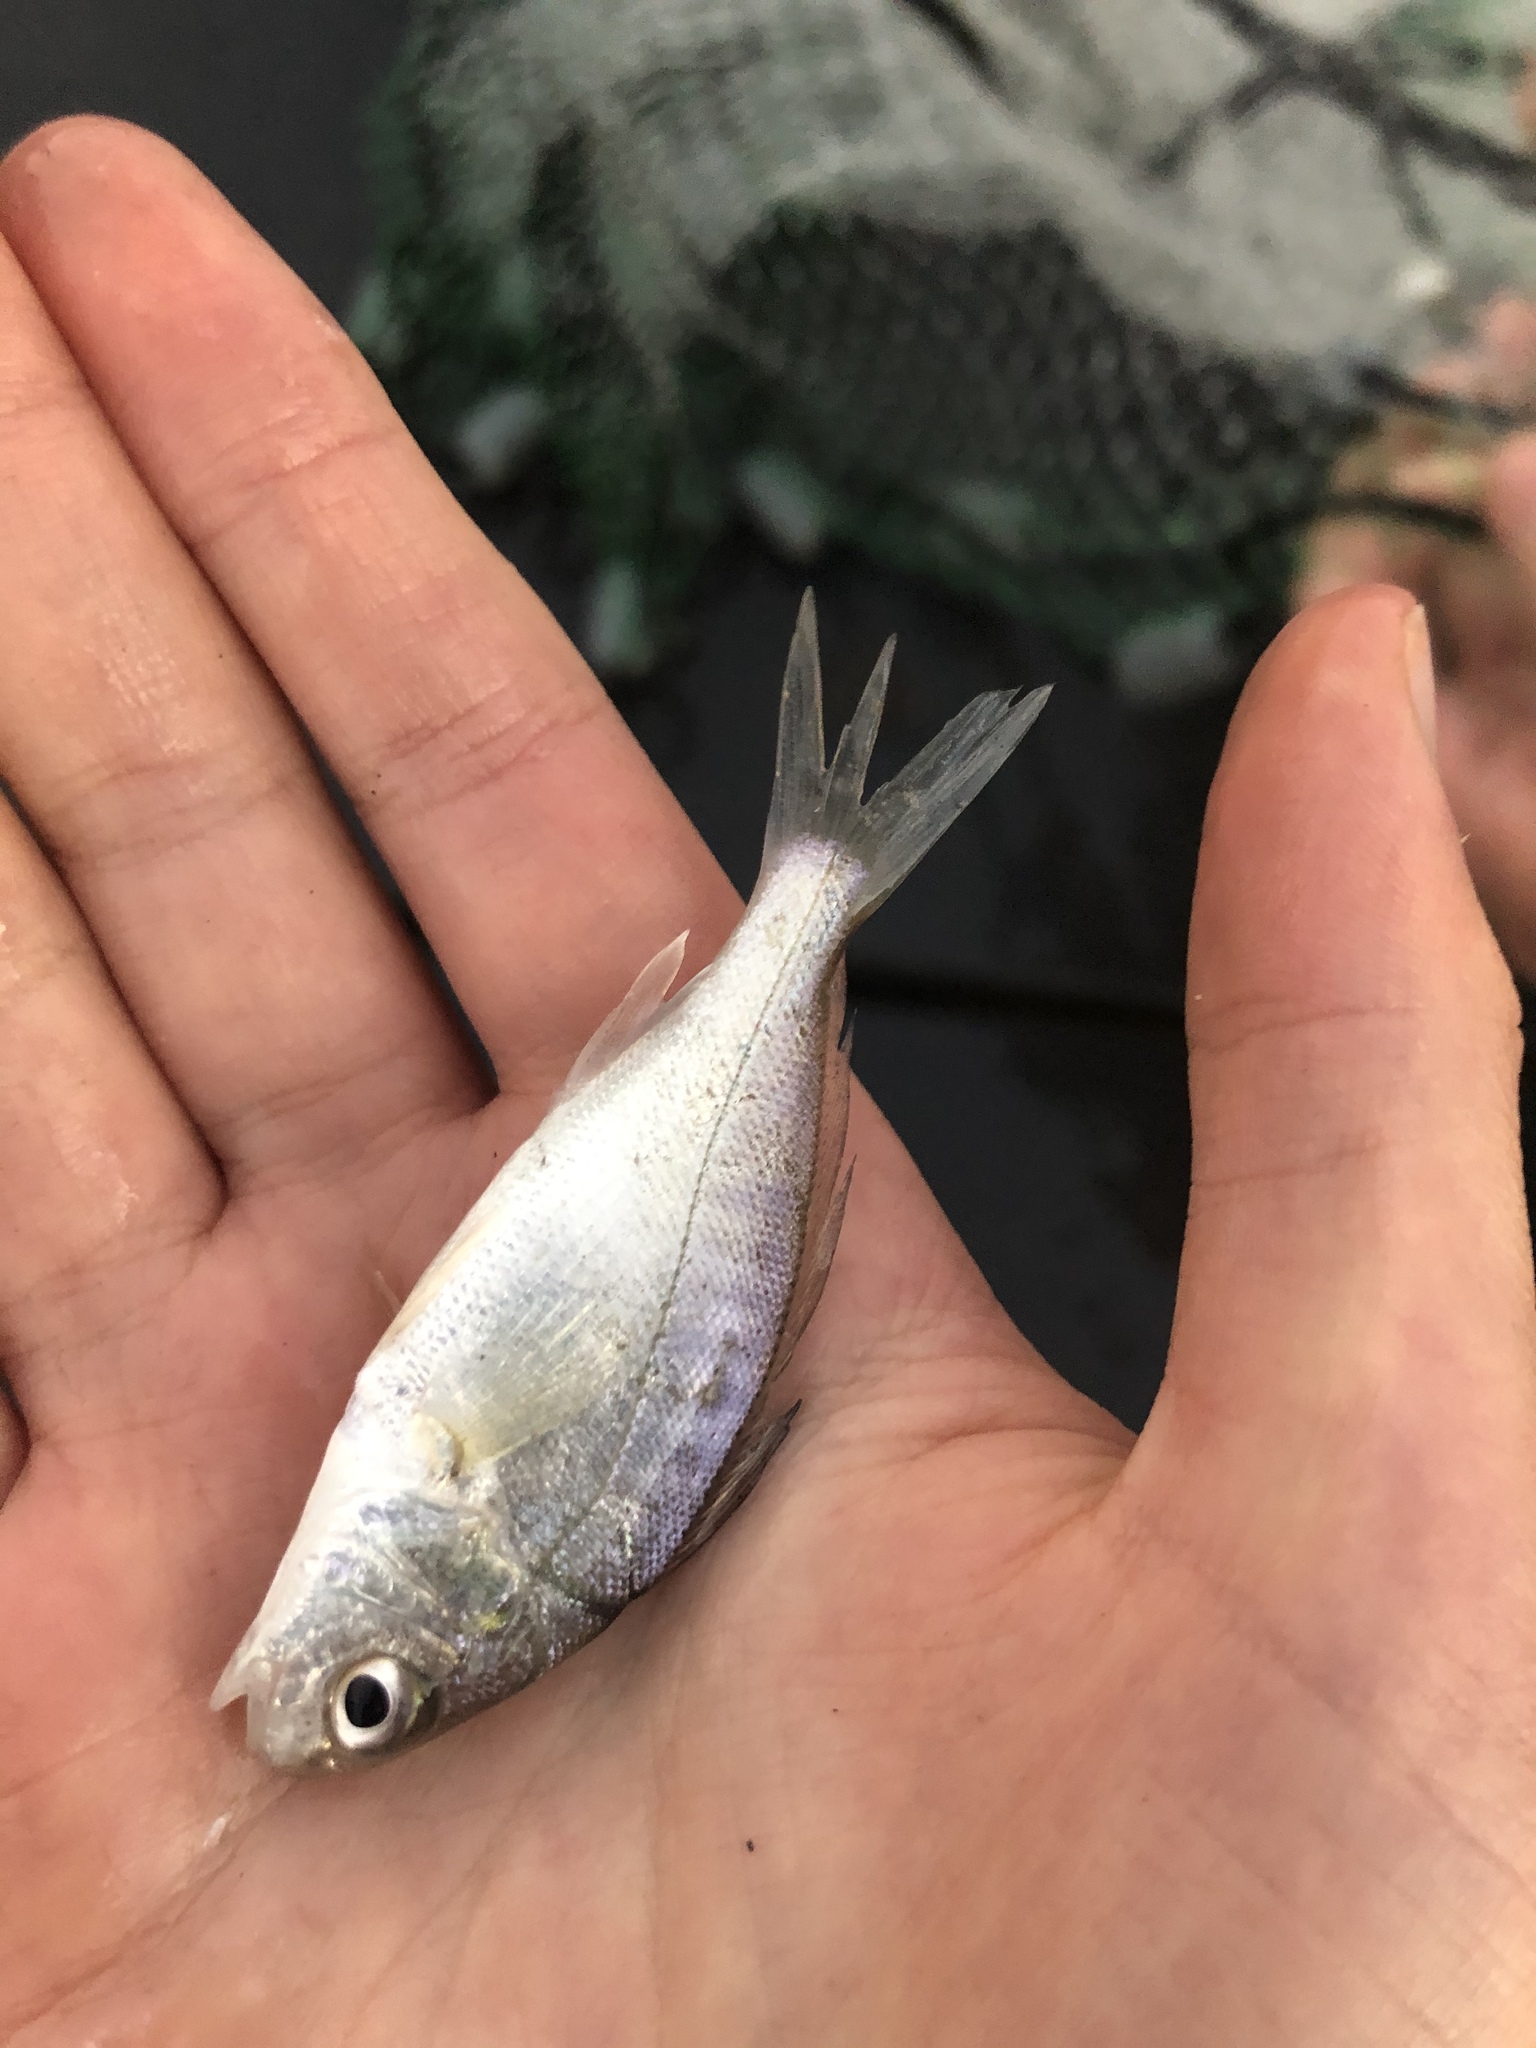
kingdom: Animalia
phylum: Chordata
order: Perciformes
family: Sciaenidae
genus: Leiostomus
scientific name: Leiostomus xanthurus
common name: Spot
